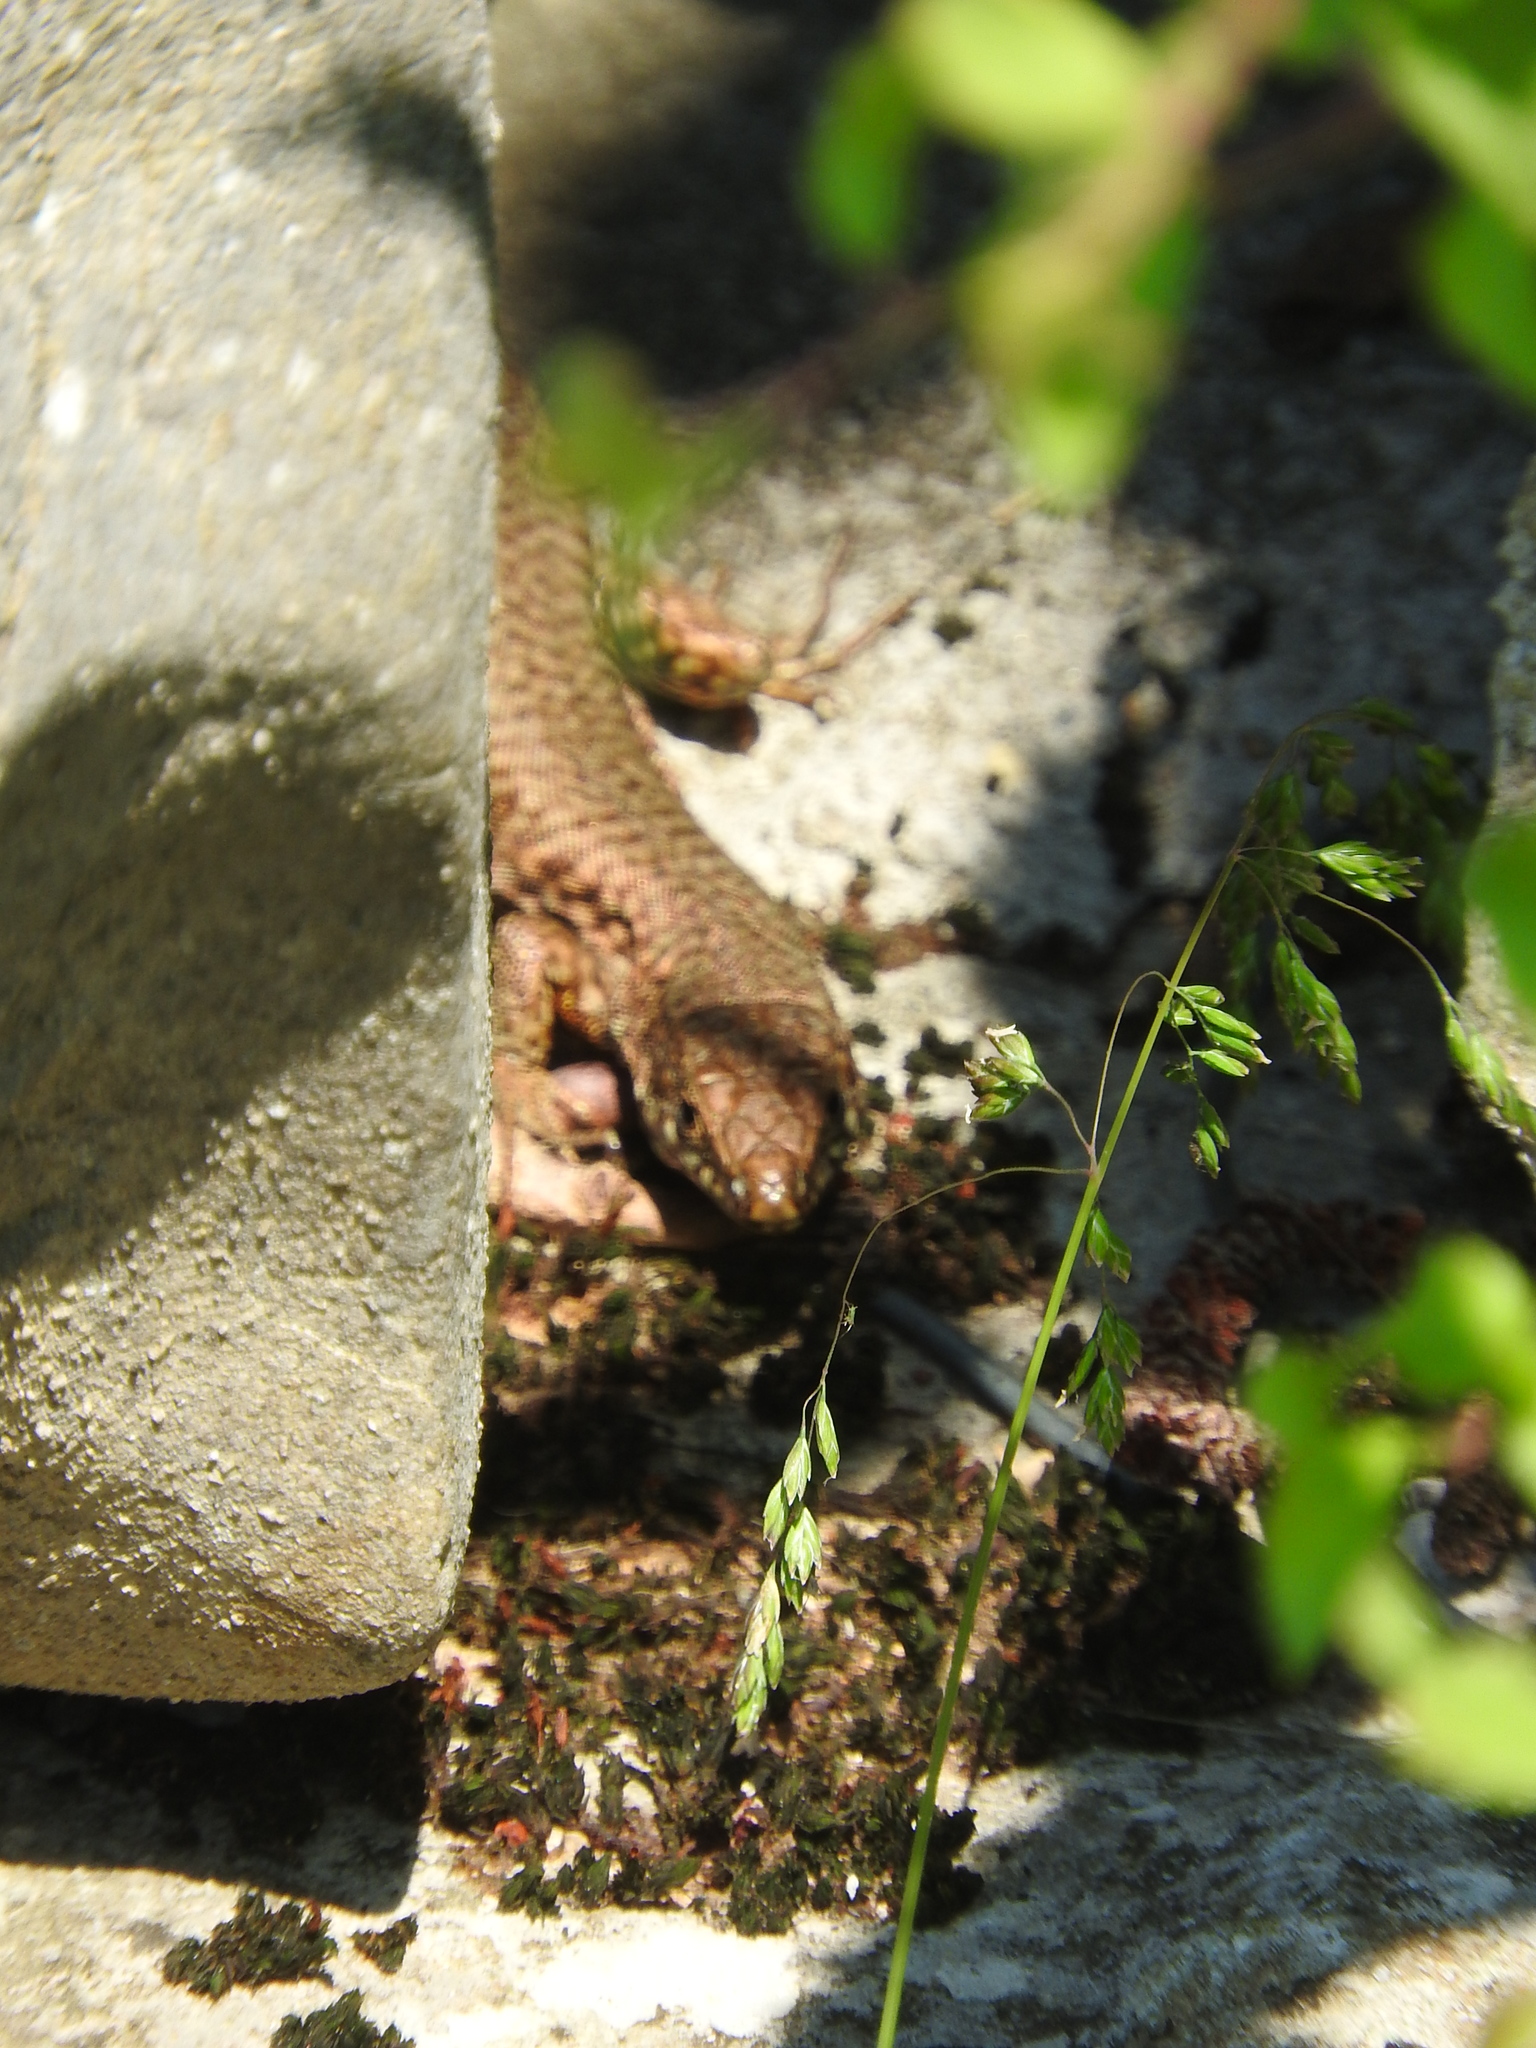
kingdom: Animalia
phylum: Chordata
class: Squamata
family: Lacertidae
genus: Podarcis
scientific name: Podarcis muralis
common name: Common wall lizard
